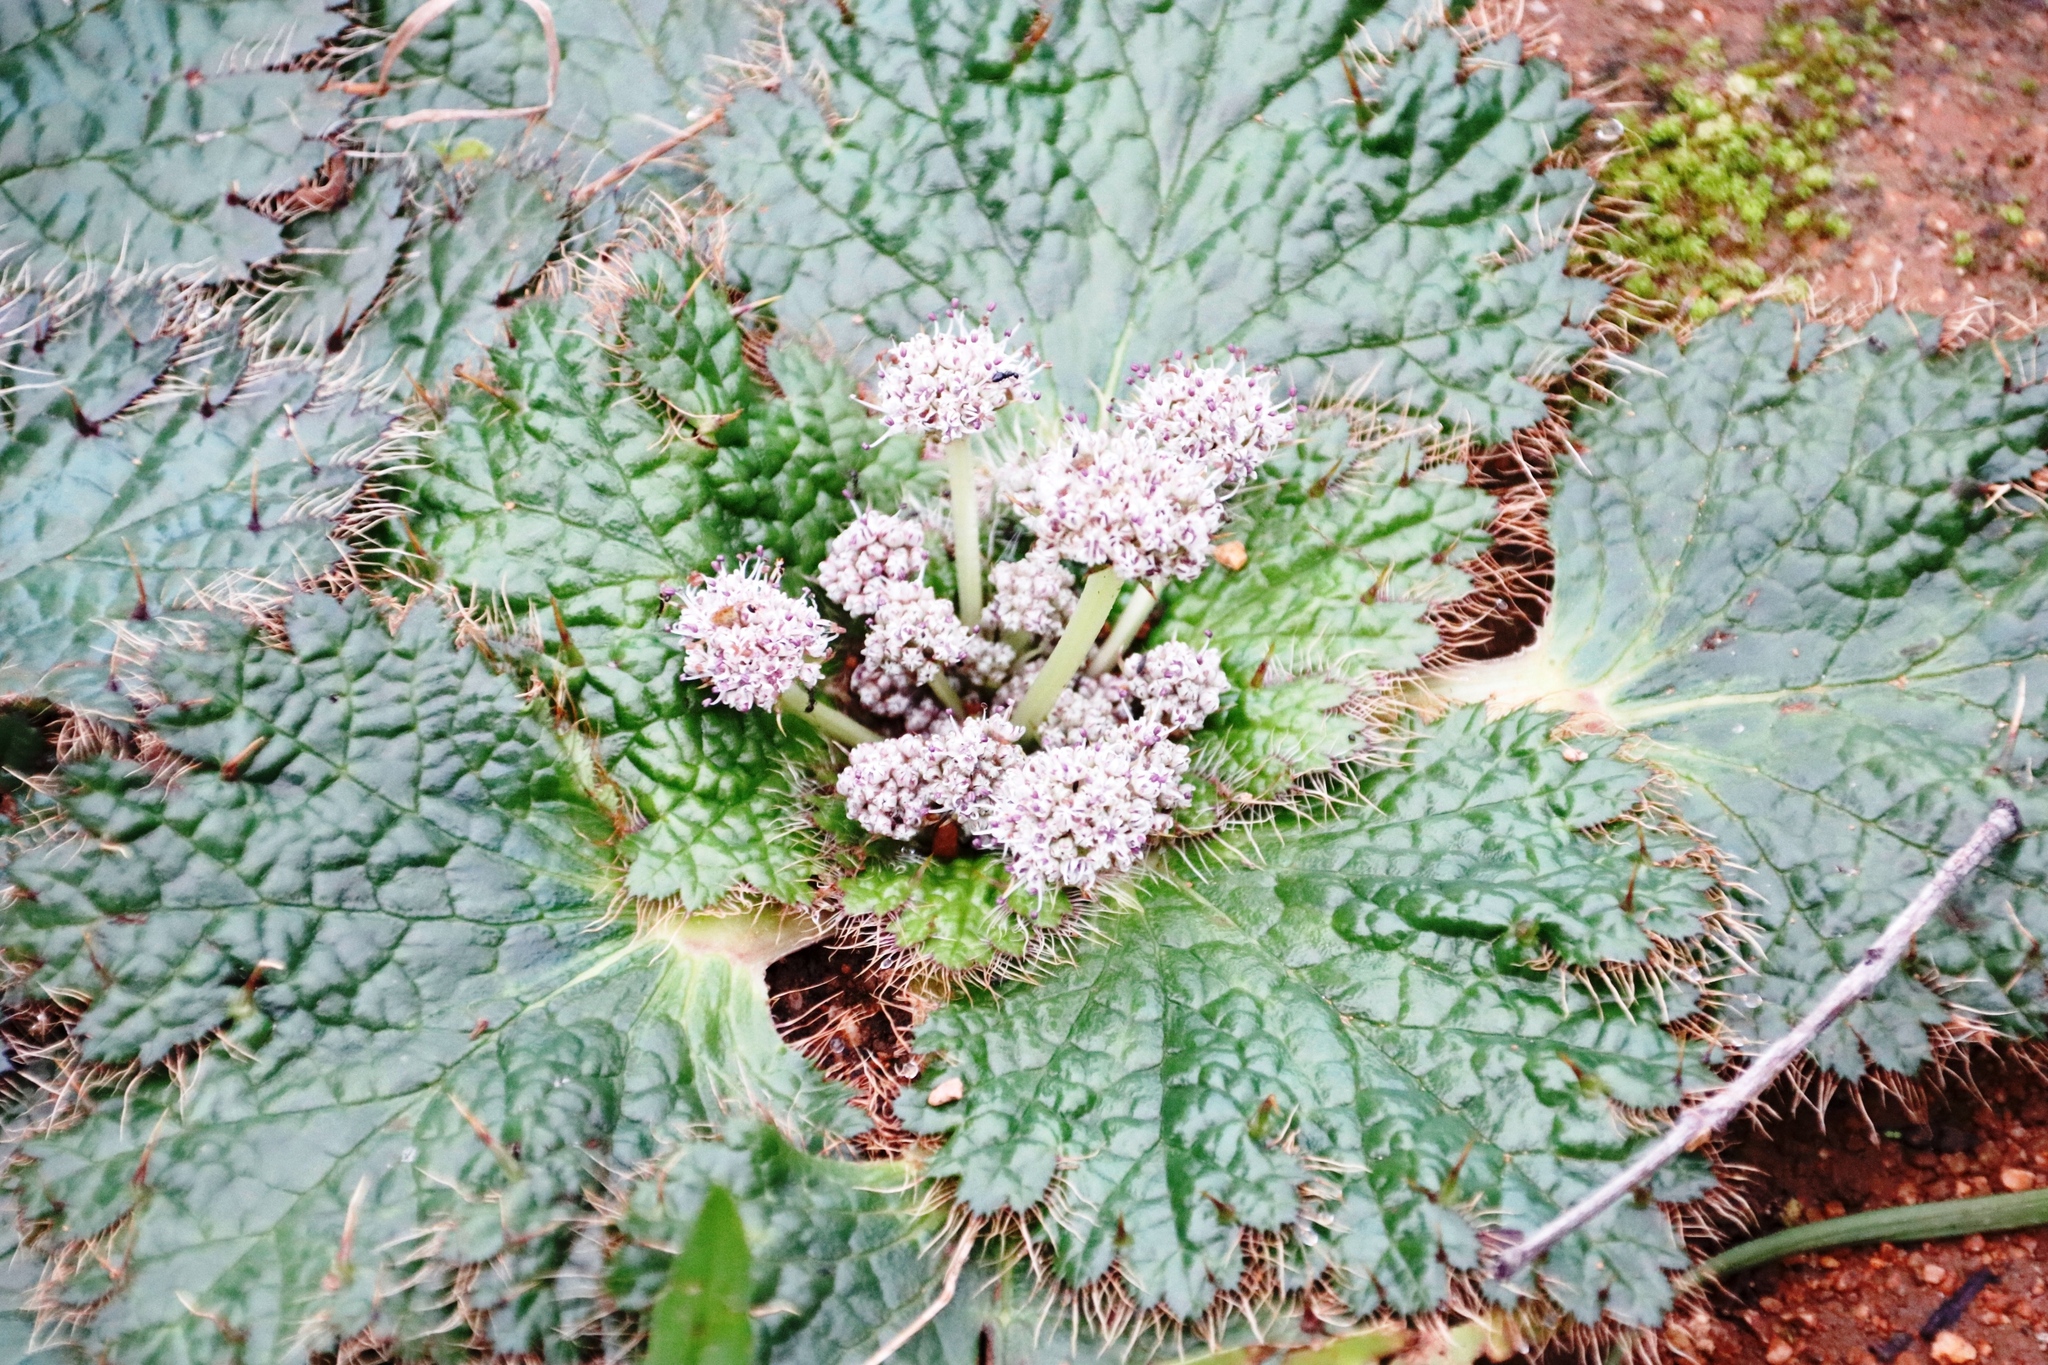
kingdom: Plantae
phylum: Tracheophyta
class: Magnoliopsida
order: Apiales
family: Apiaceae
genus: Arctopus
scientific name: Arctopus echinatus
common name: Platdoring
